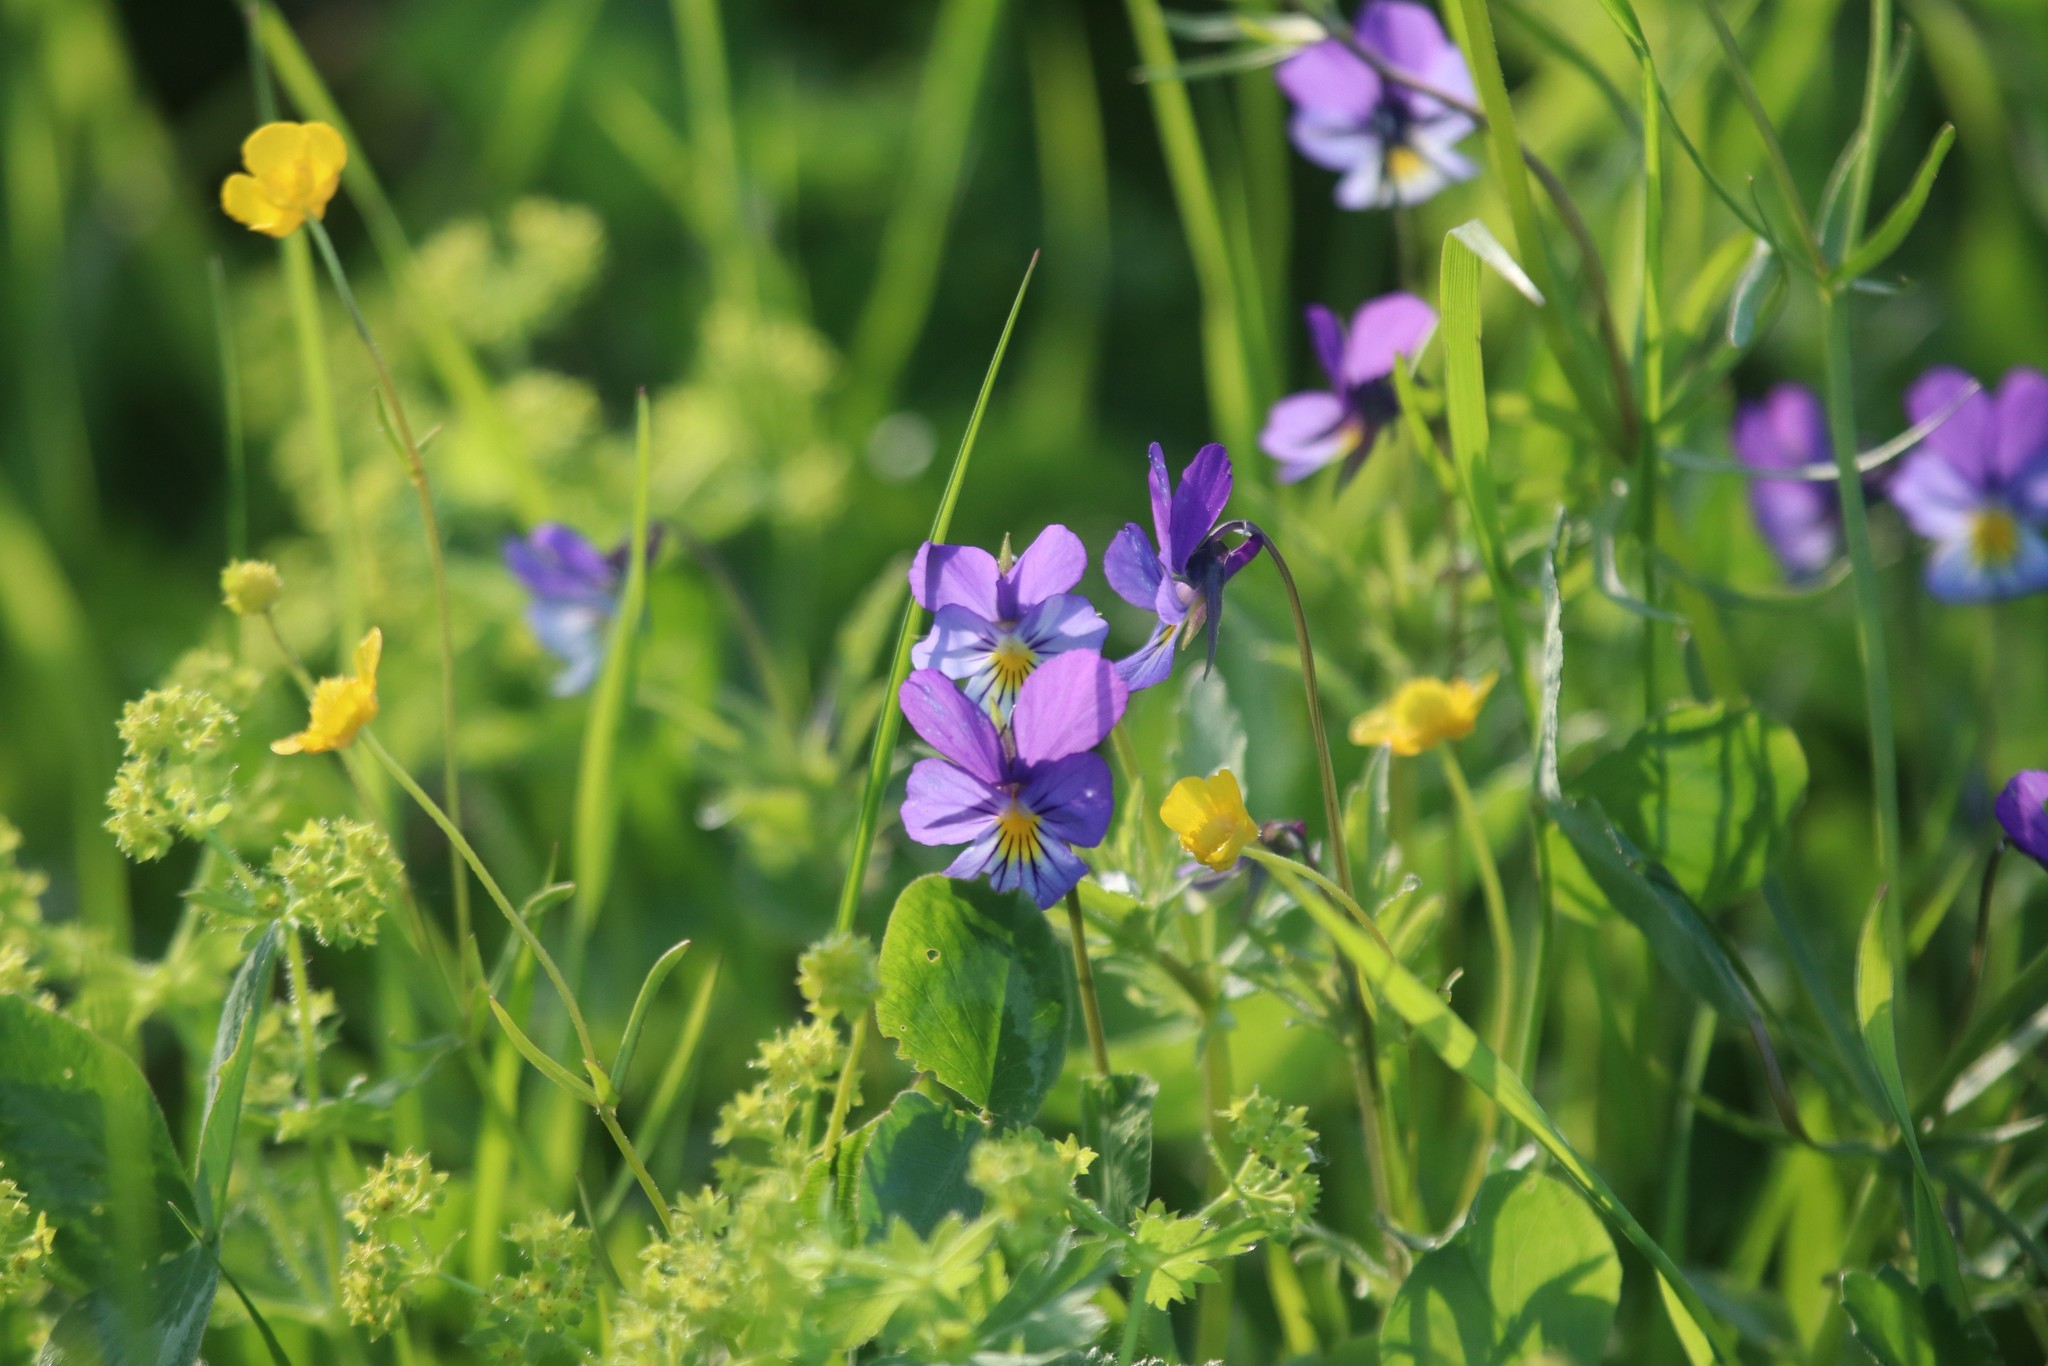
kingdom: Plantae
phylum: Tracheophyta
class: Magnoliopsida
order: Malpighiales
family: Violaceae
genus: Viola
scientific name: Viola tricolor
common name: Pansy
